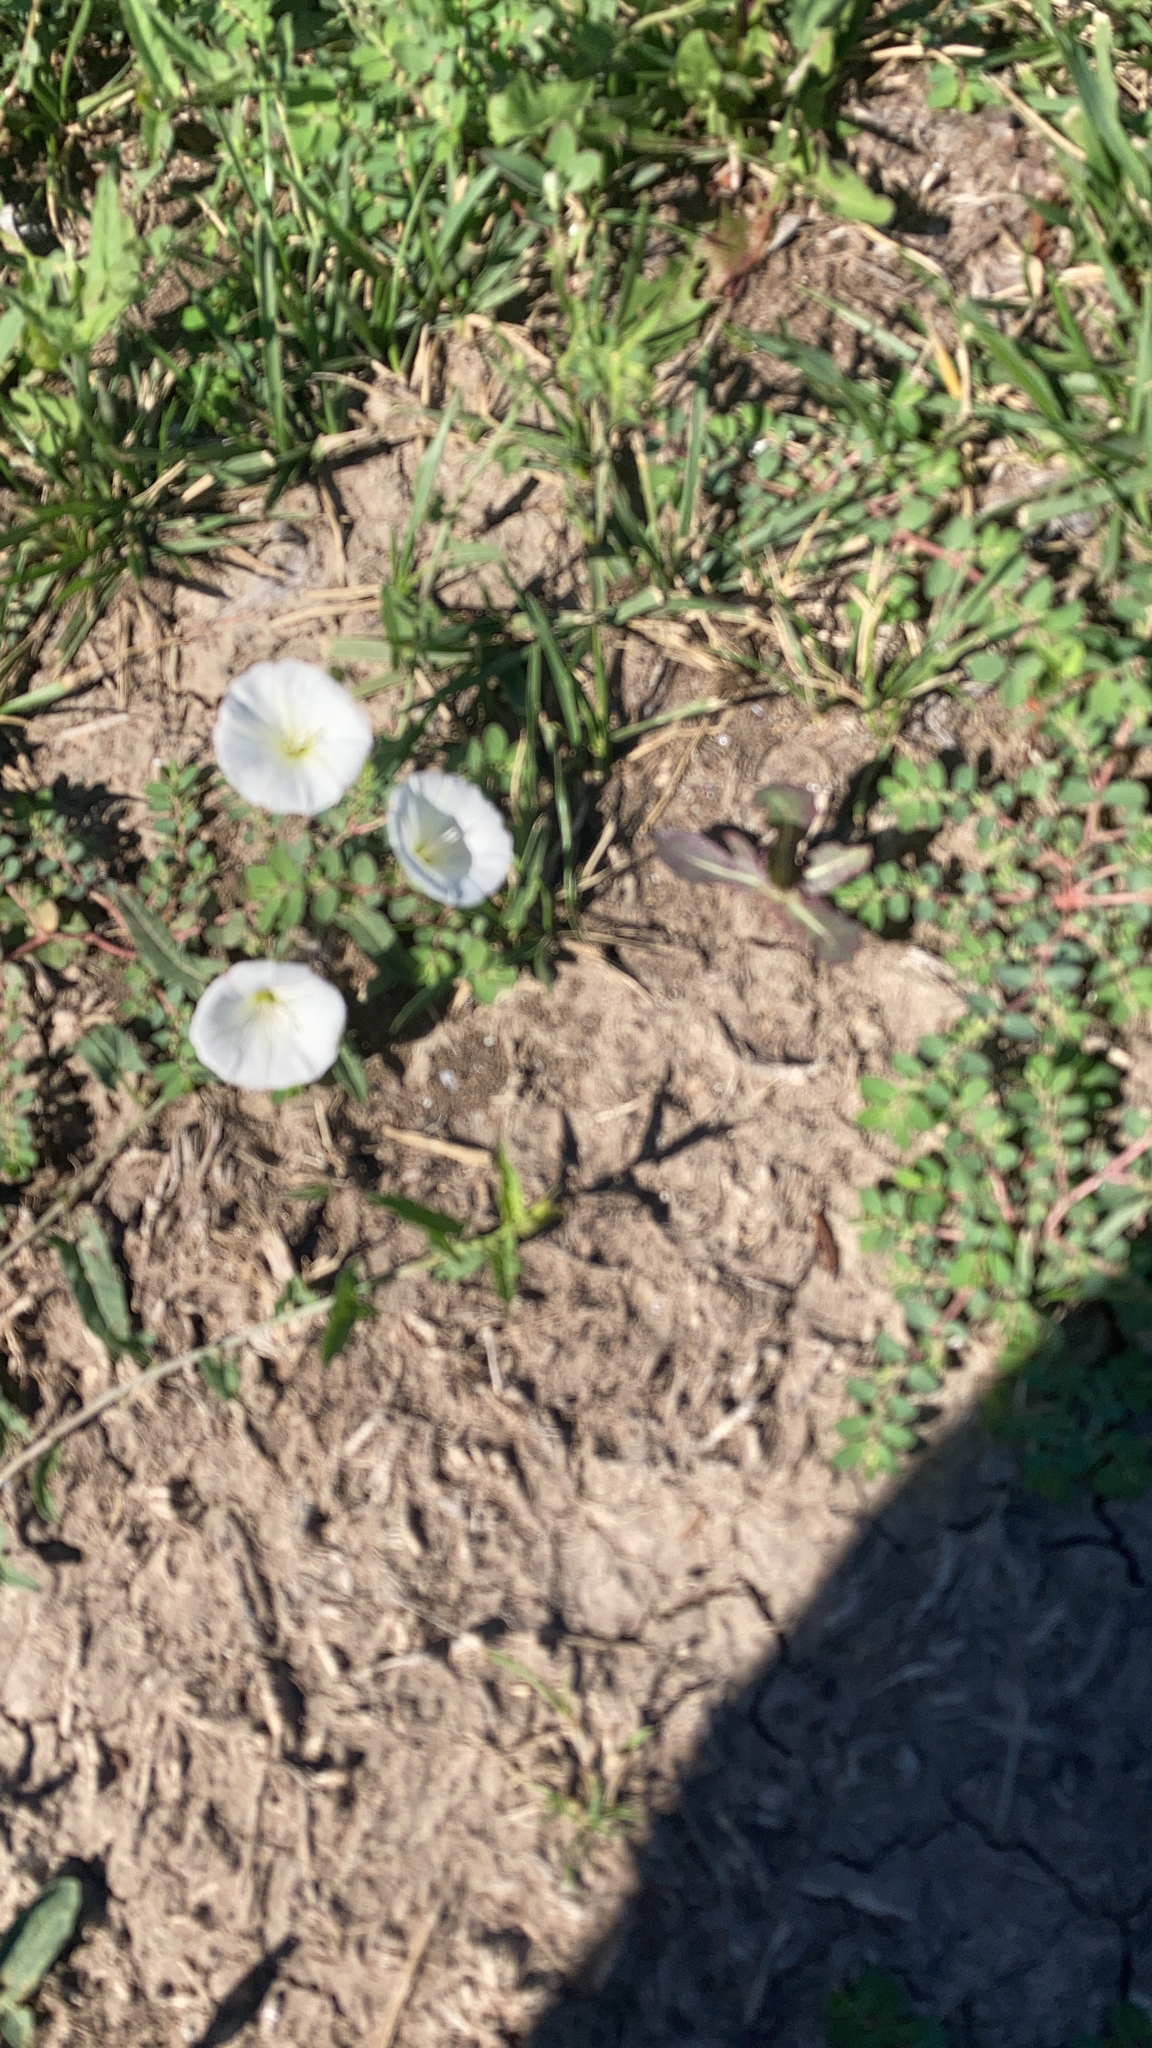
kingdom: Plantae
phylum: Tracheophyta
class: Magnoliopsida
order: Solanales
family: Convolvulaceae
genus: Convolvulus
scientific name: Convolvulus arvensis
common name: Field bindweed
